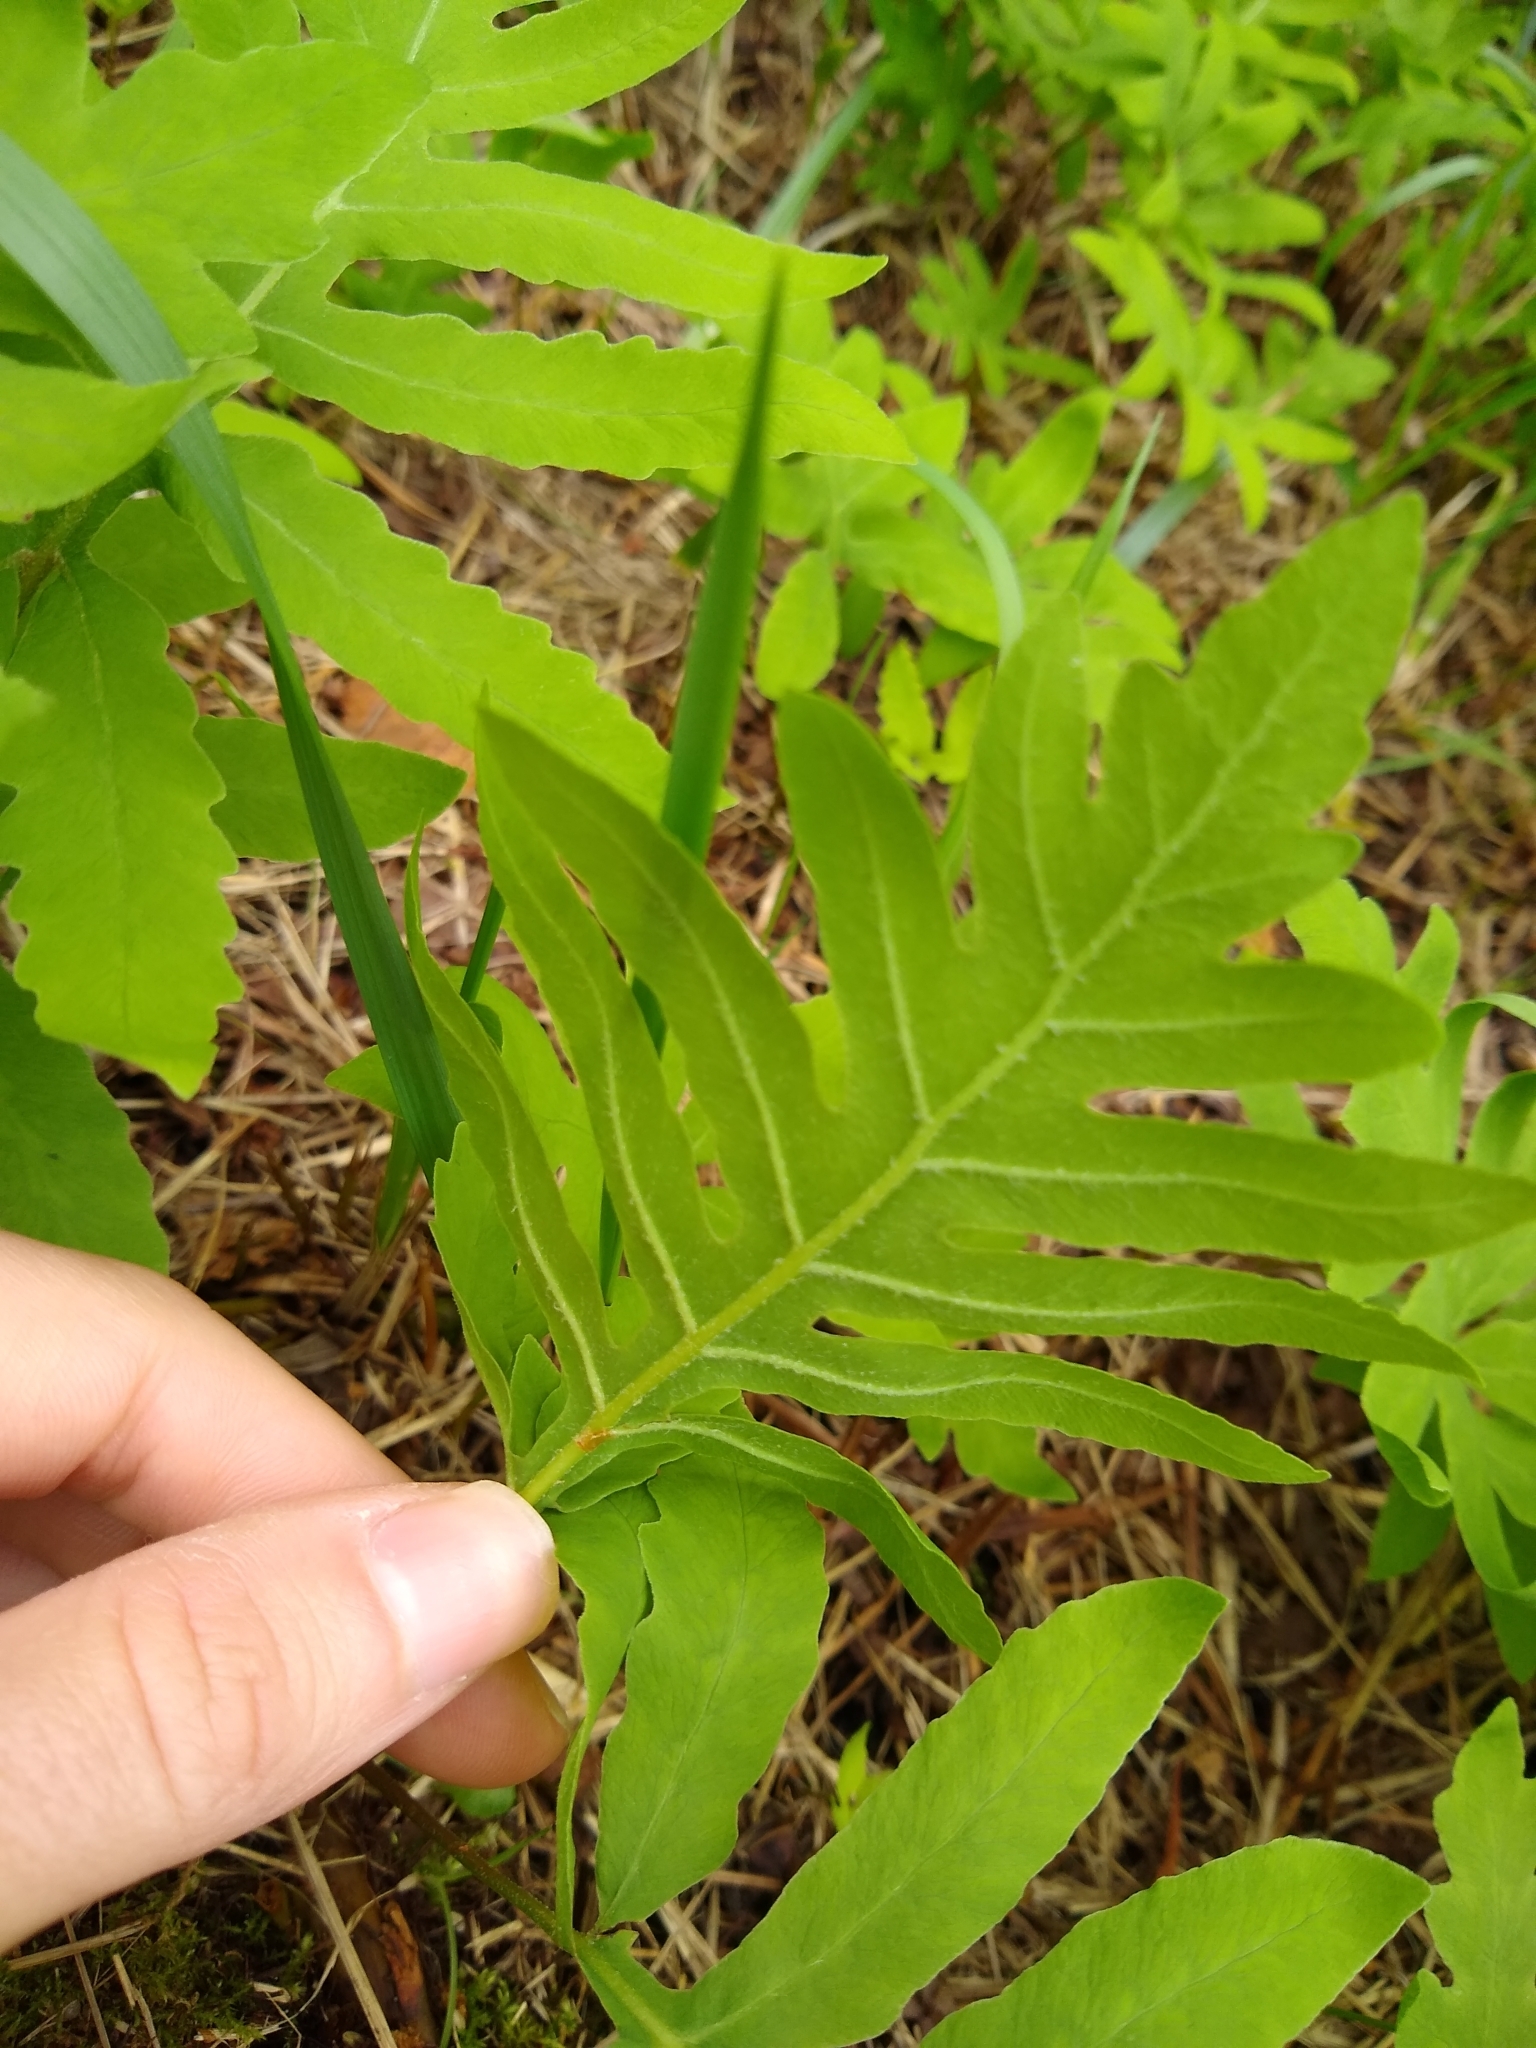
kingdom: Plantae
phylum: Tracheophyta
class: Polypodiopsida
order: Polypodiales
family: Onocleaceae
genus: Onoclea
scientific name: Onoclea sensibilis
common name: Sensitive fern
